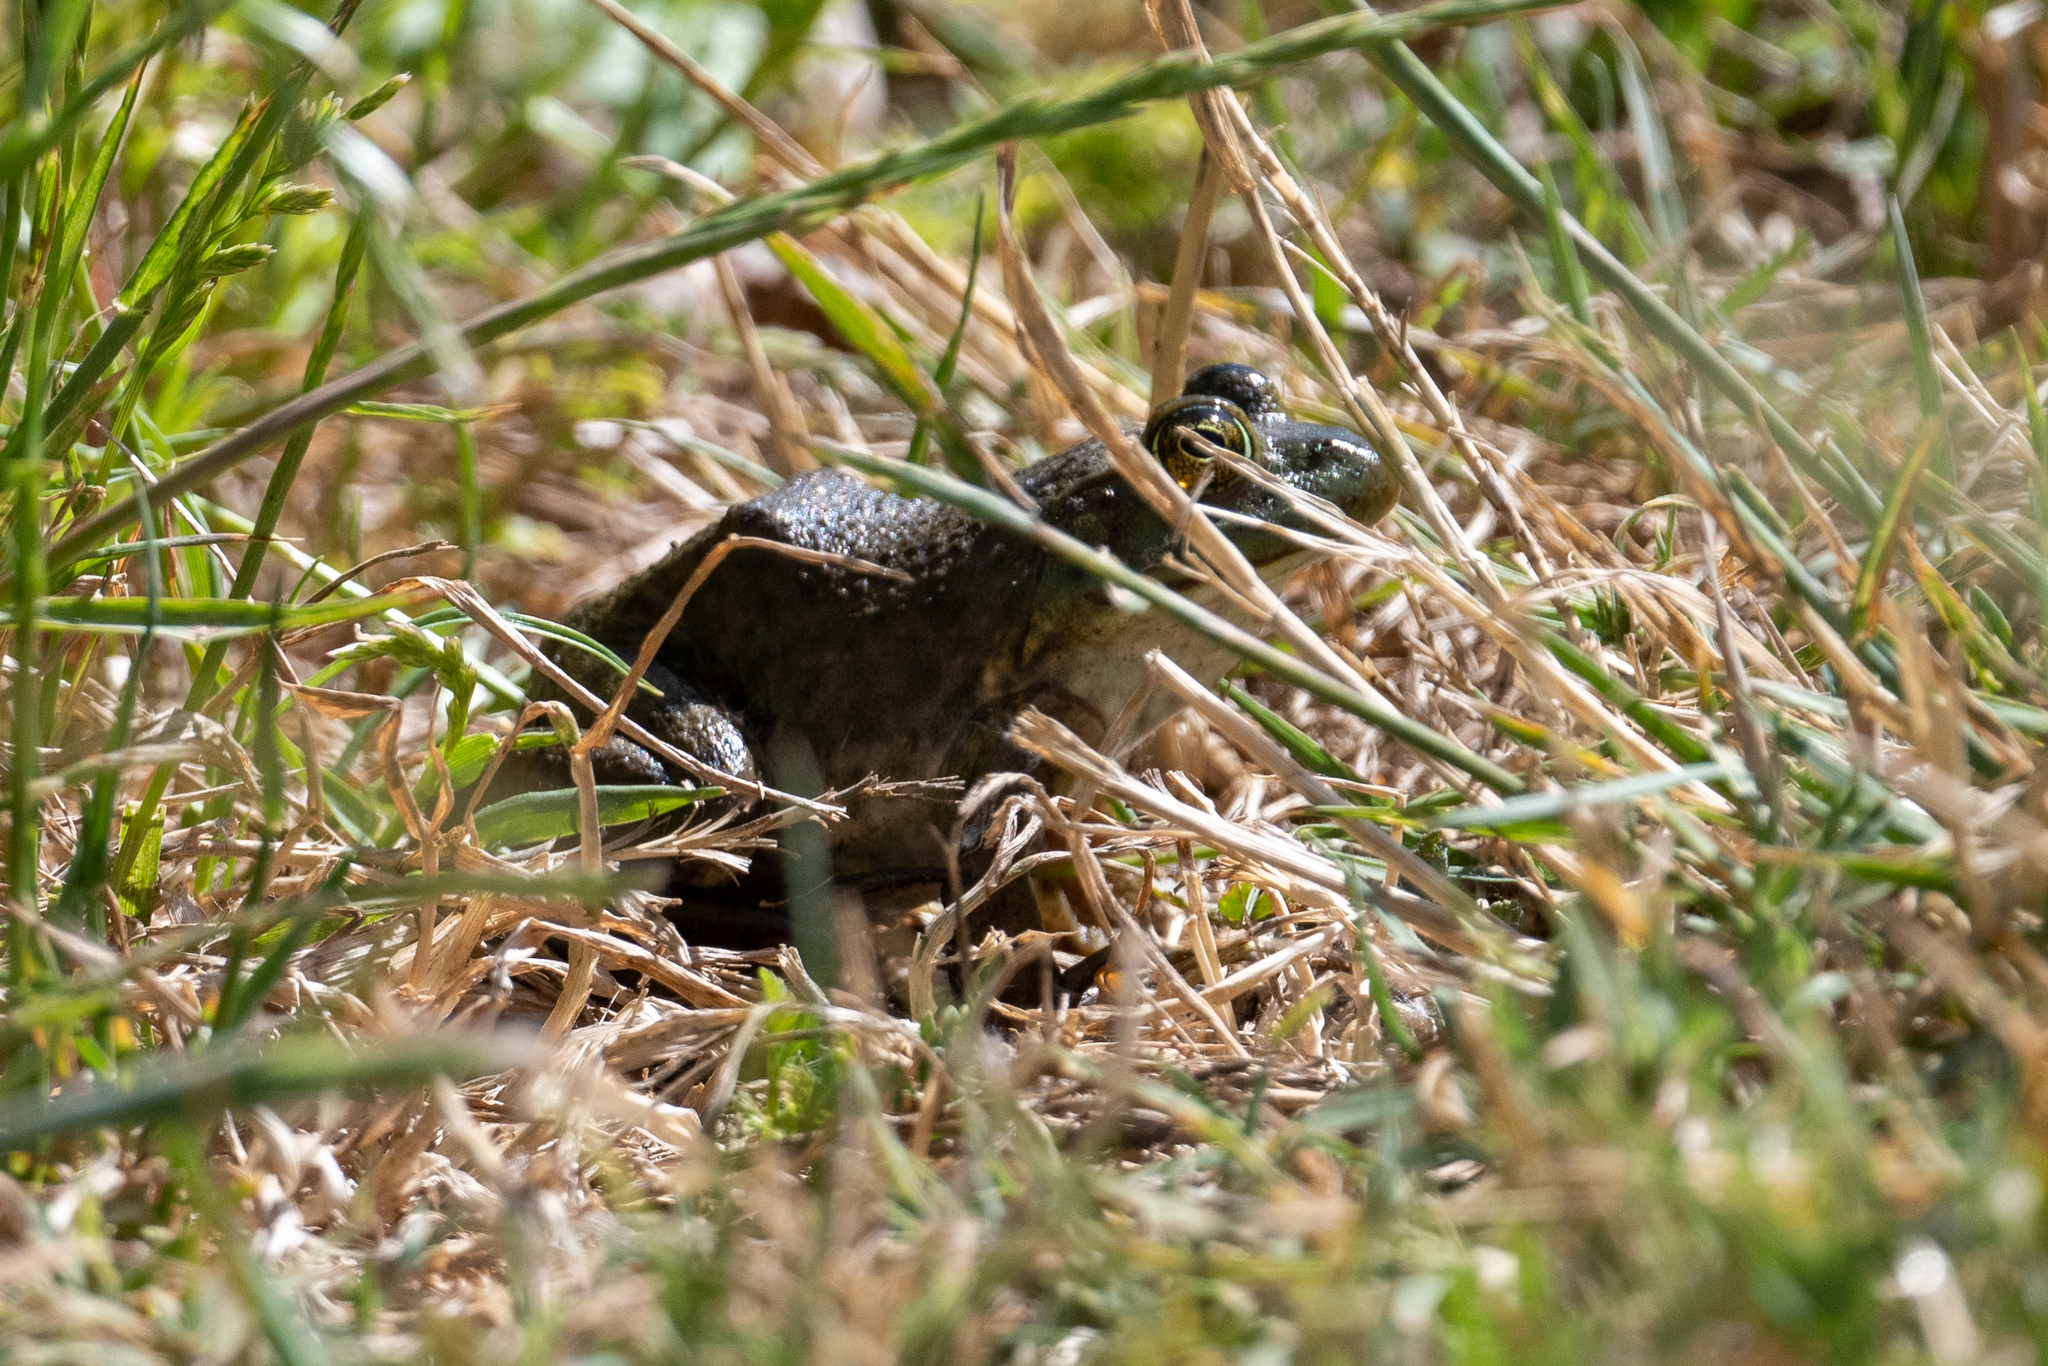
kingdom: Animalia
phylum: Chordata
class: Amphibia
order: Anura
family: Ranidae
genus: Lithobates
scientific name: Lithobates catesbeianus
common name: American bullfrog
